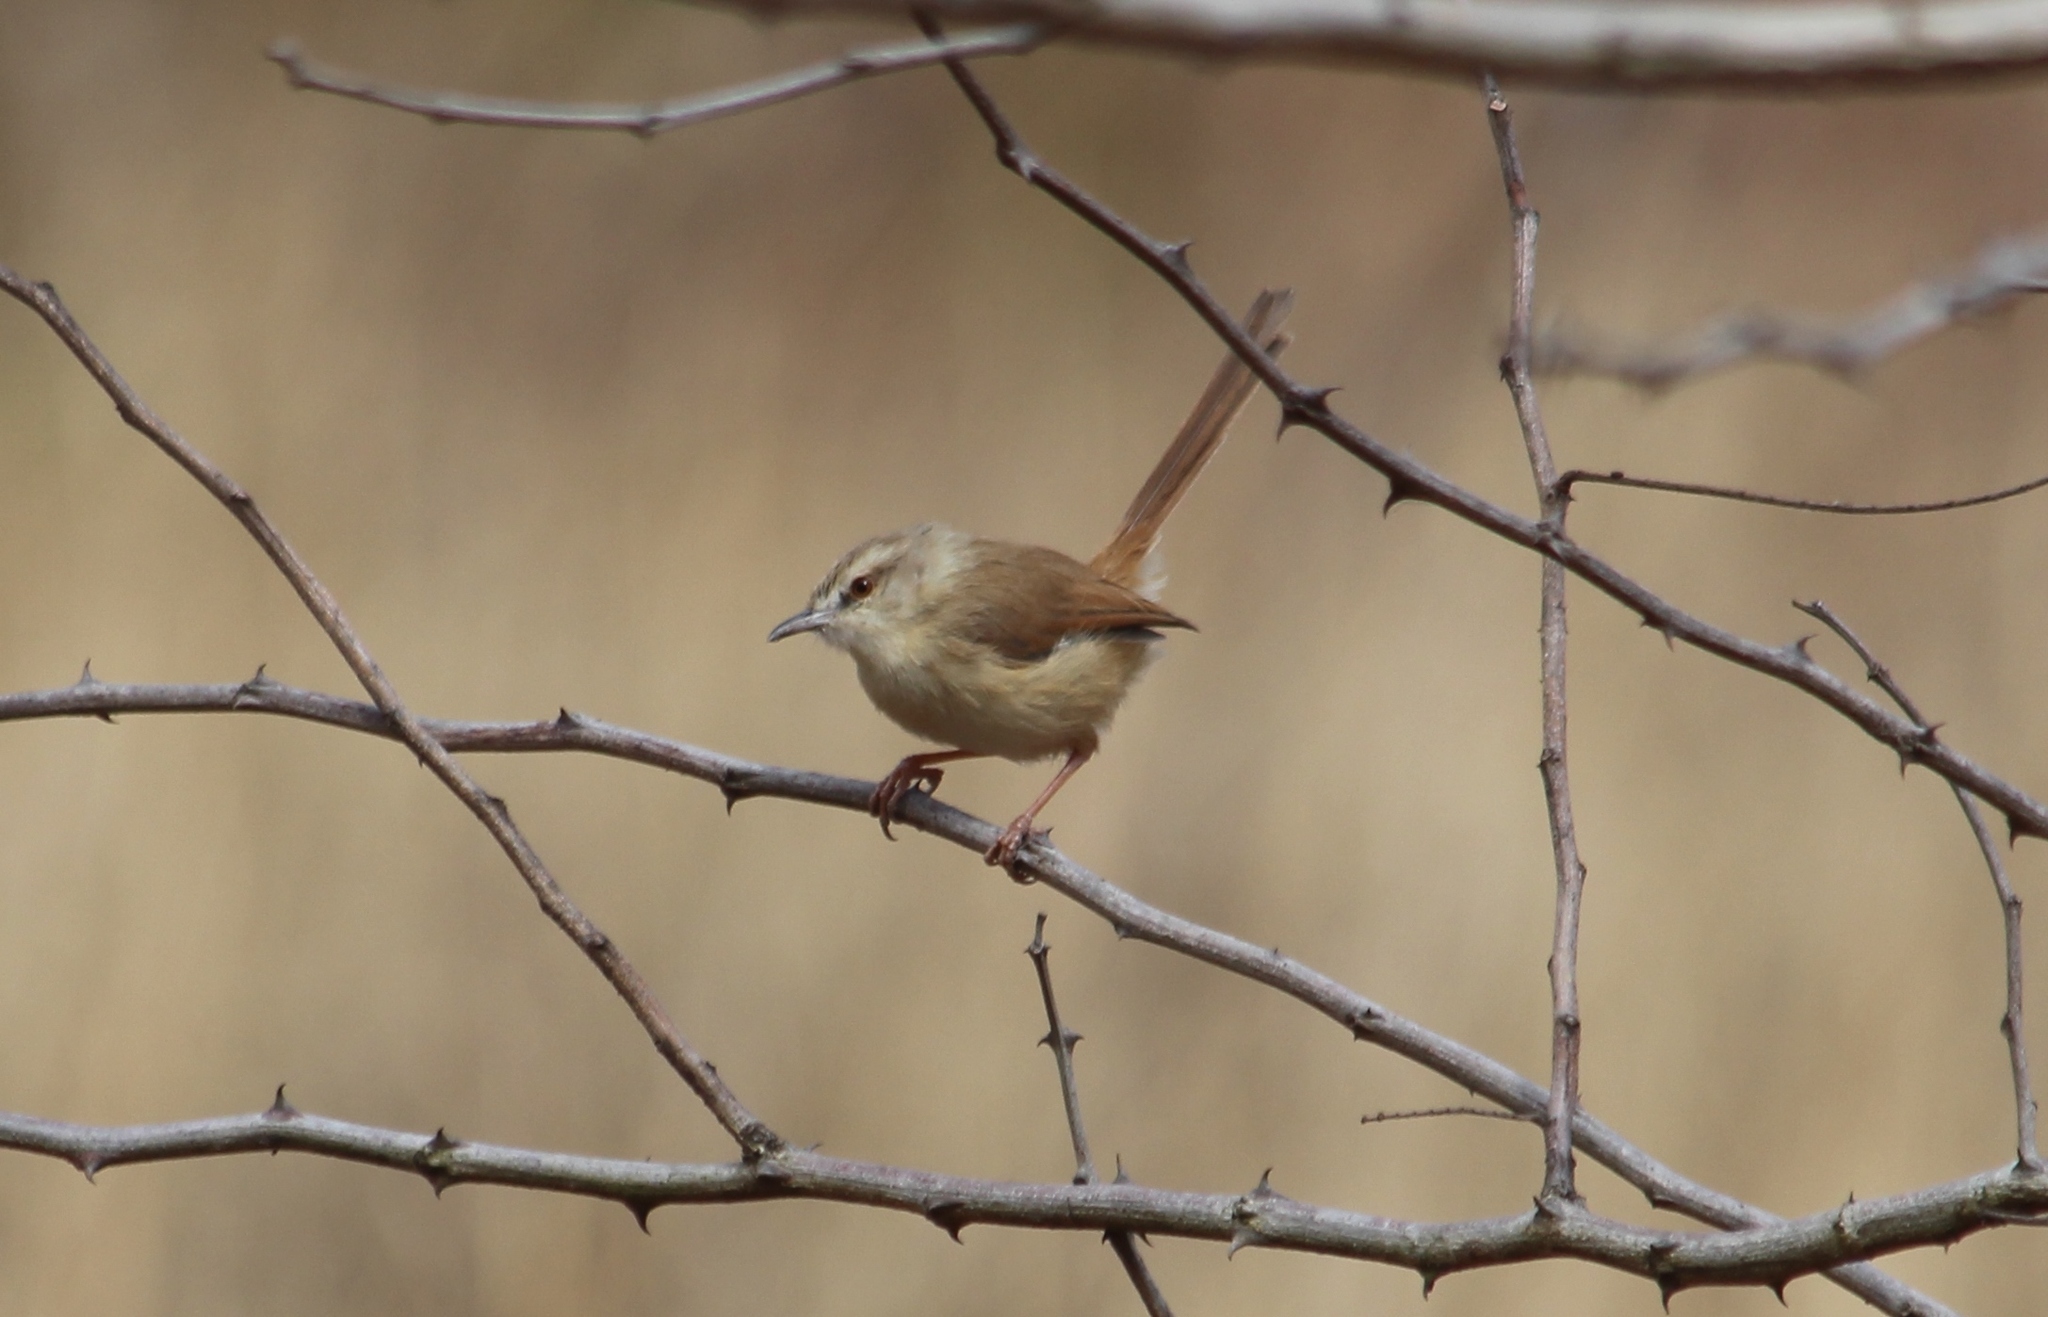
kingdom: Animalia
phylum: Chordata
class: Aves
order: Passeriformes
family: Cisticolidae
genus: Prinia
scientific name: Prinia subflava
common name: Tawny-flanked prinia
